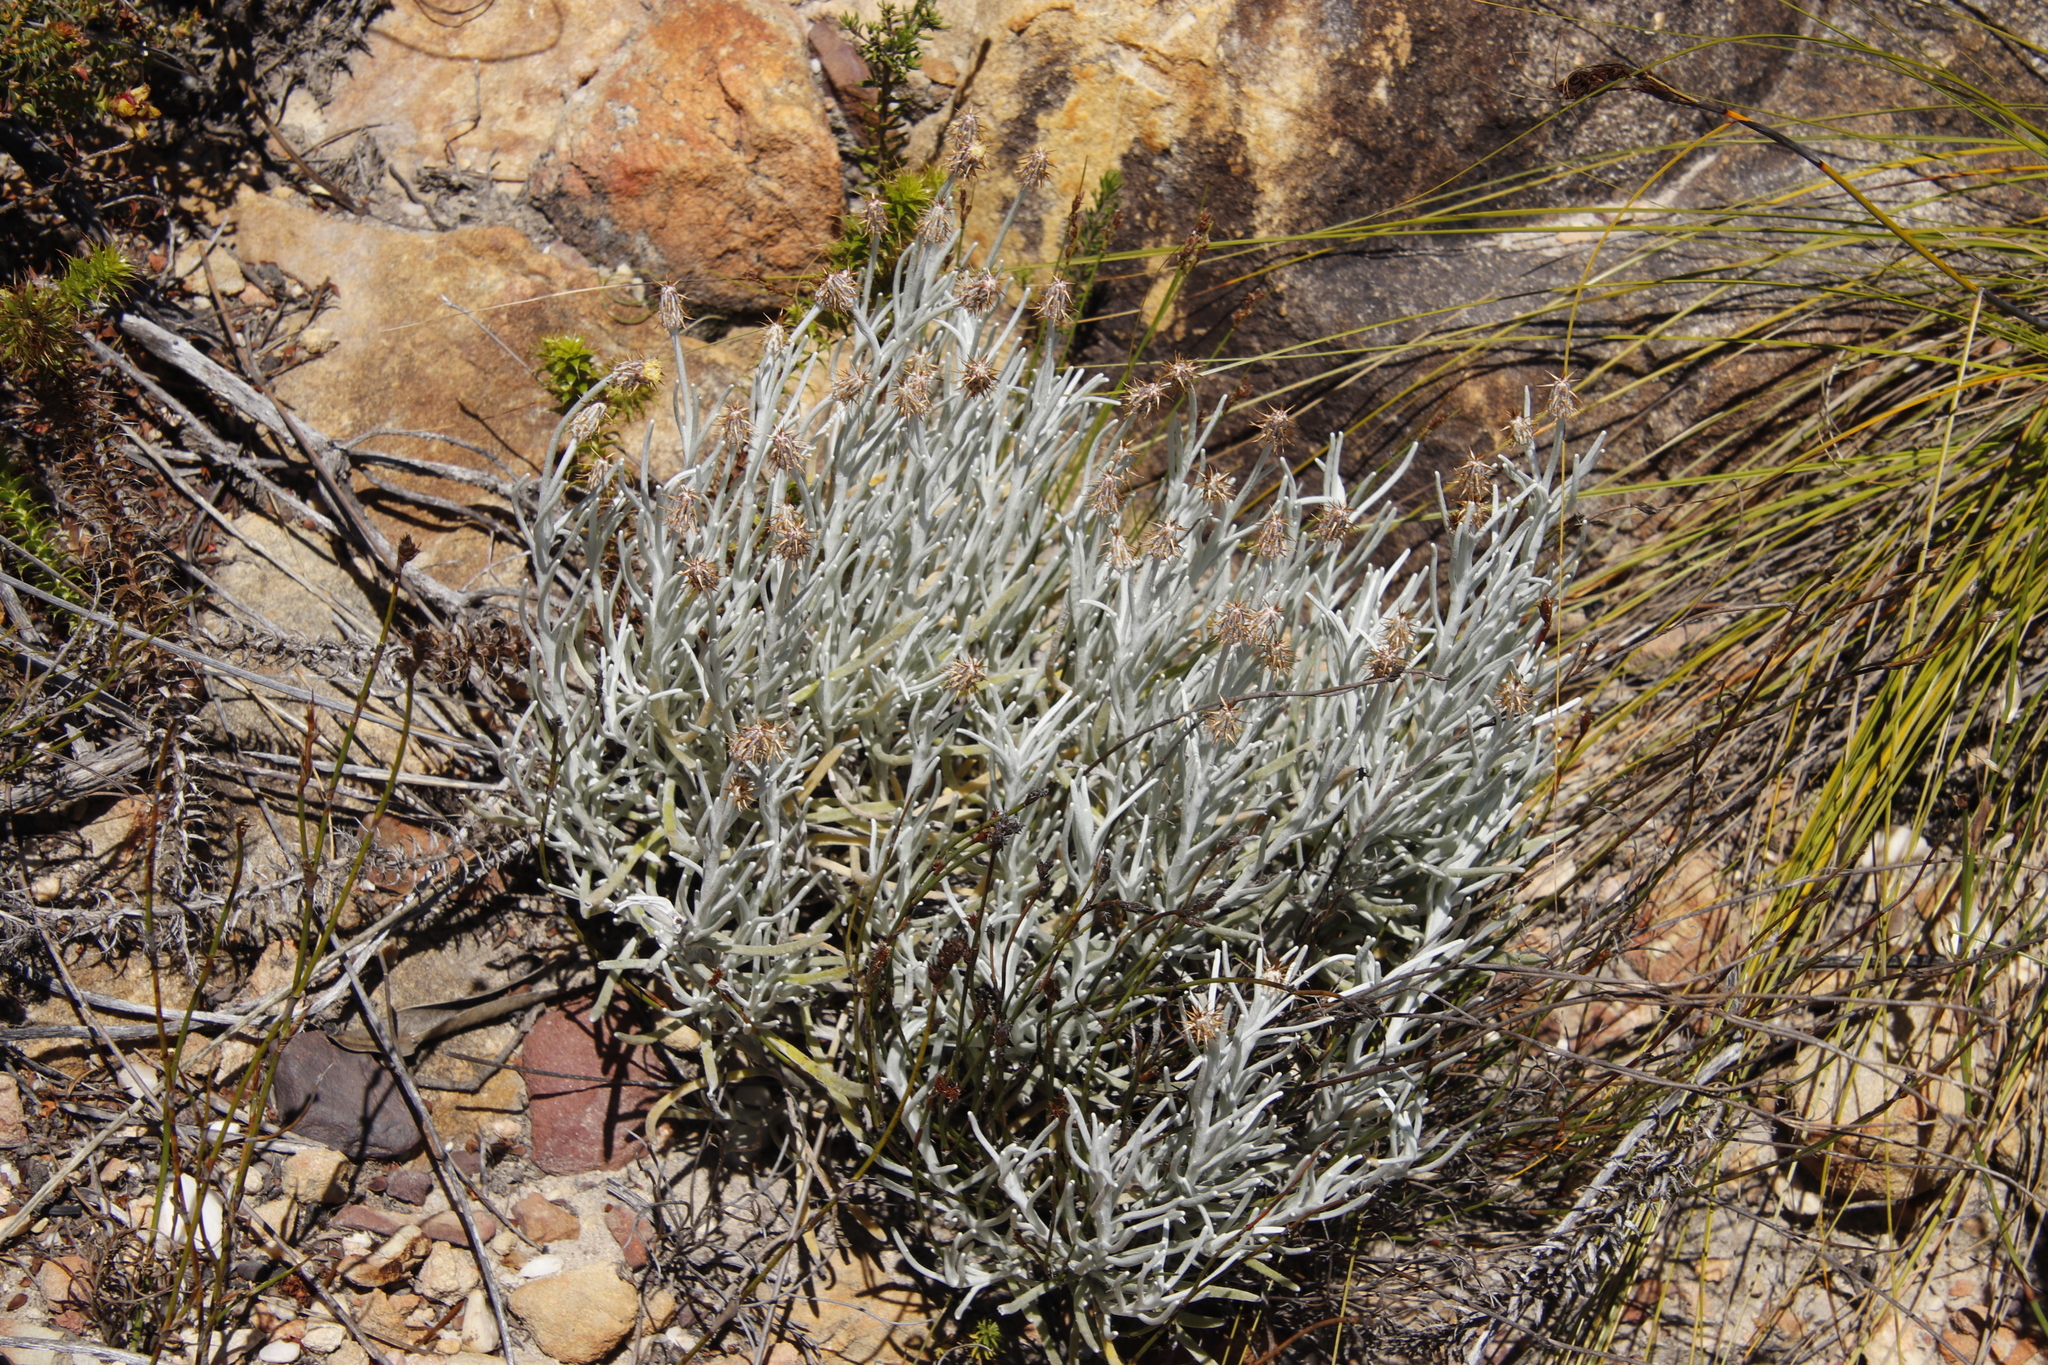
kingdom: Plantae
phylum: Tracheophyta
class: Magnoliopsida
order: Asterales
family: Asteraceae
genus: Syncarpha
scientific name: Syncarpha gnaphaloides
